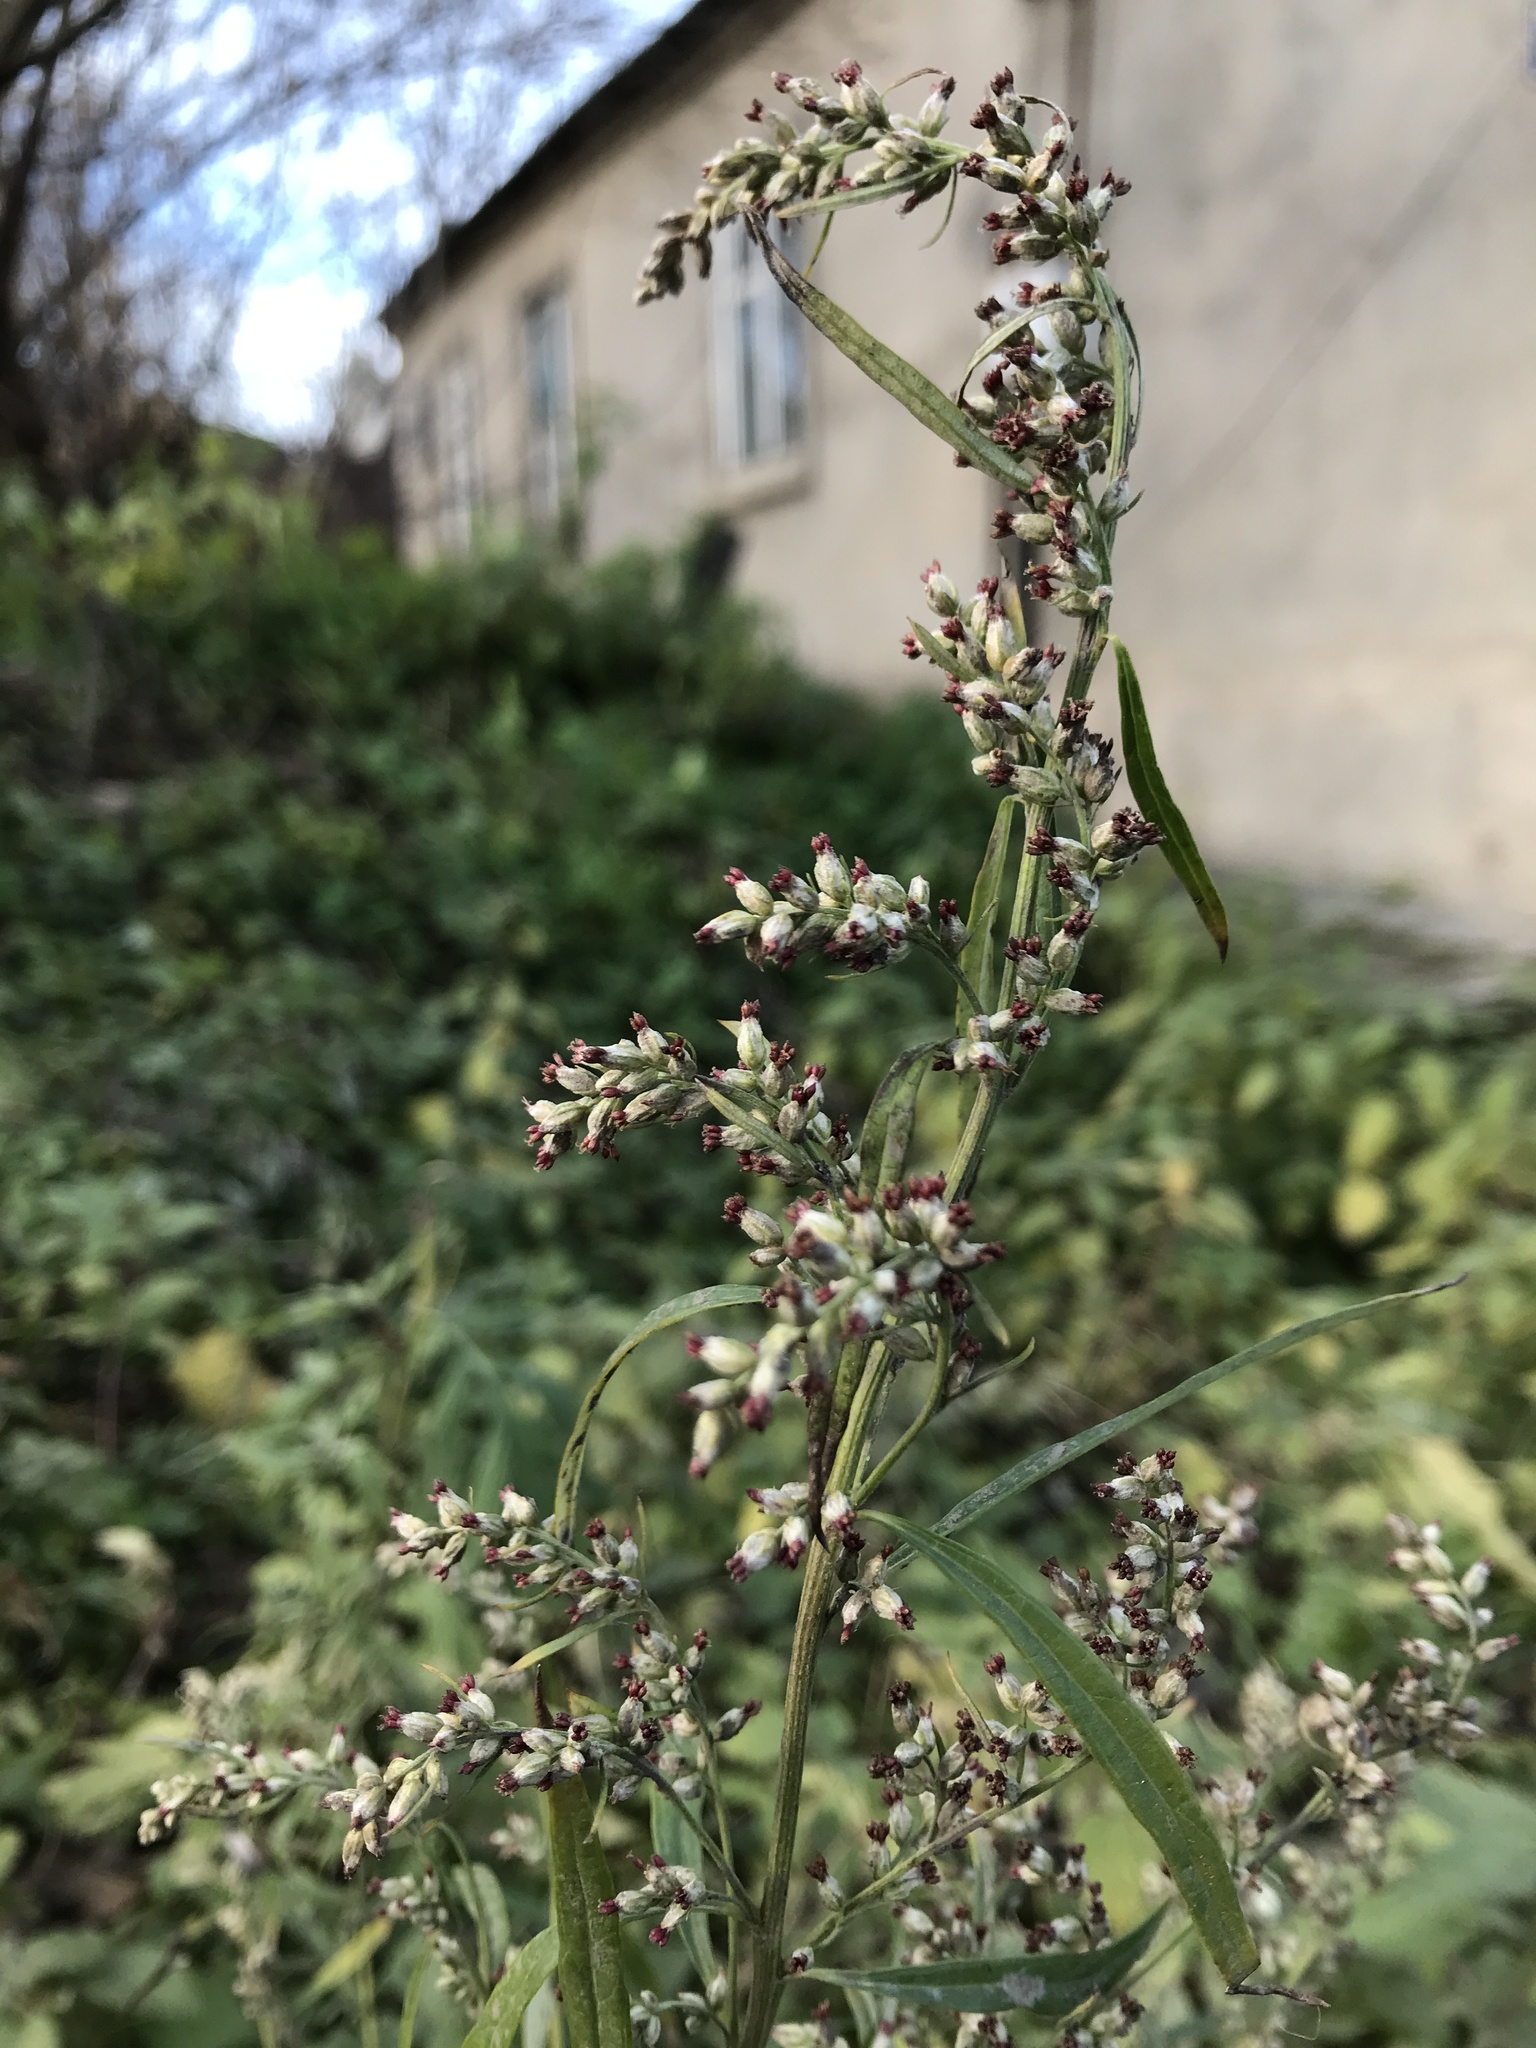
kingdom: Plantae
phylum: Tracheophyta
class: Magnoliopsida
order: Asterales
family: Asteraceae
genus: Artemisia
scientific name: Artemisia vulgaris
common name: Mugwort
